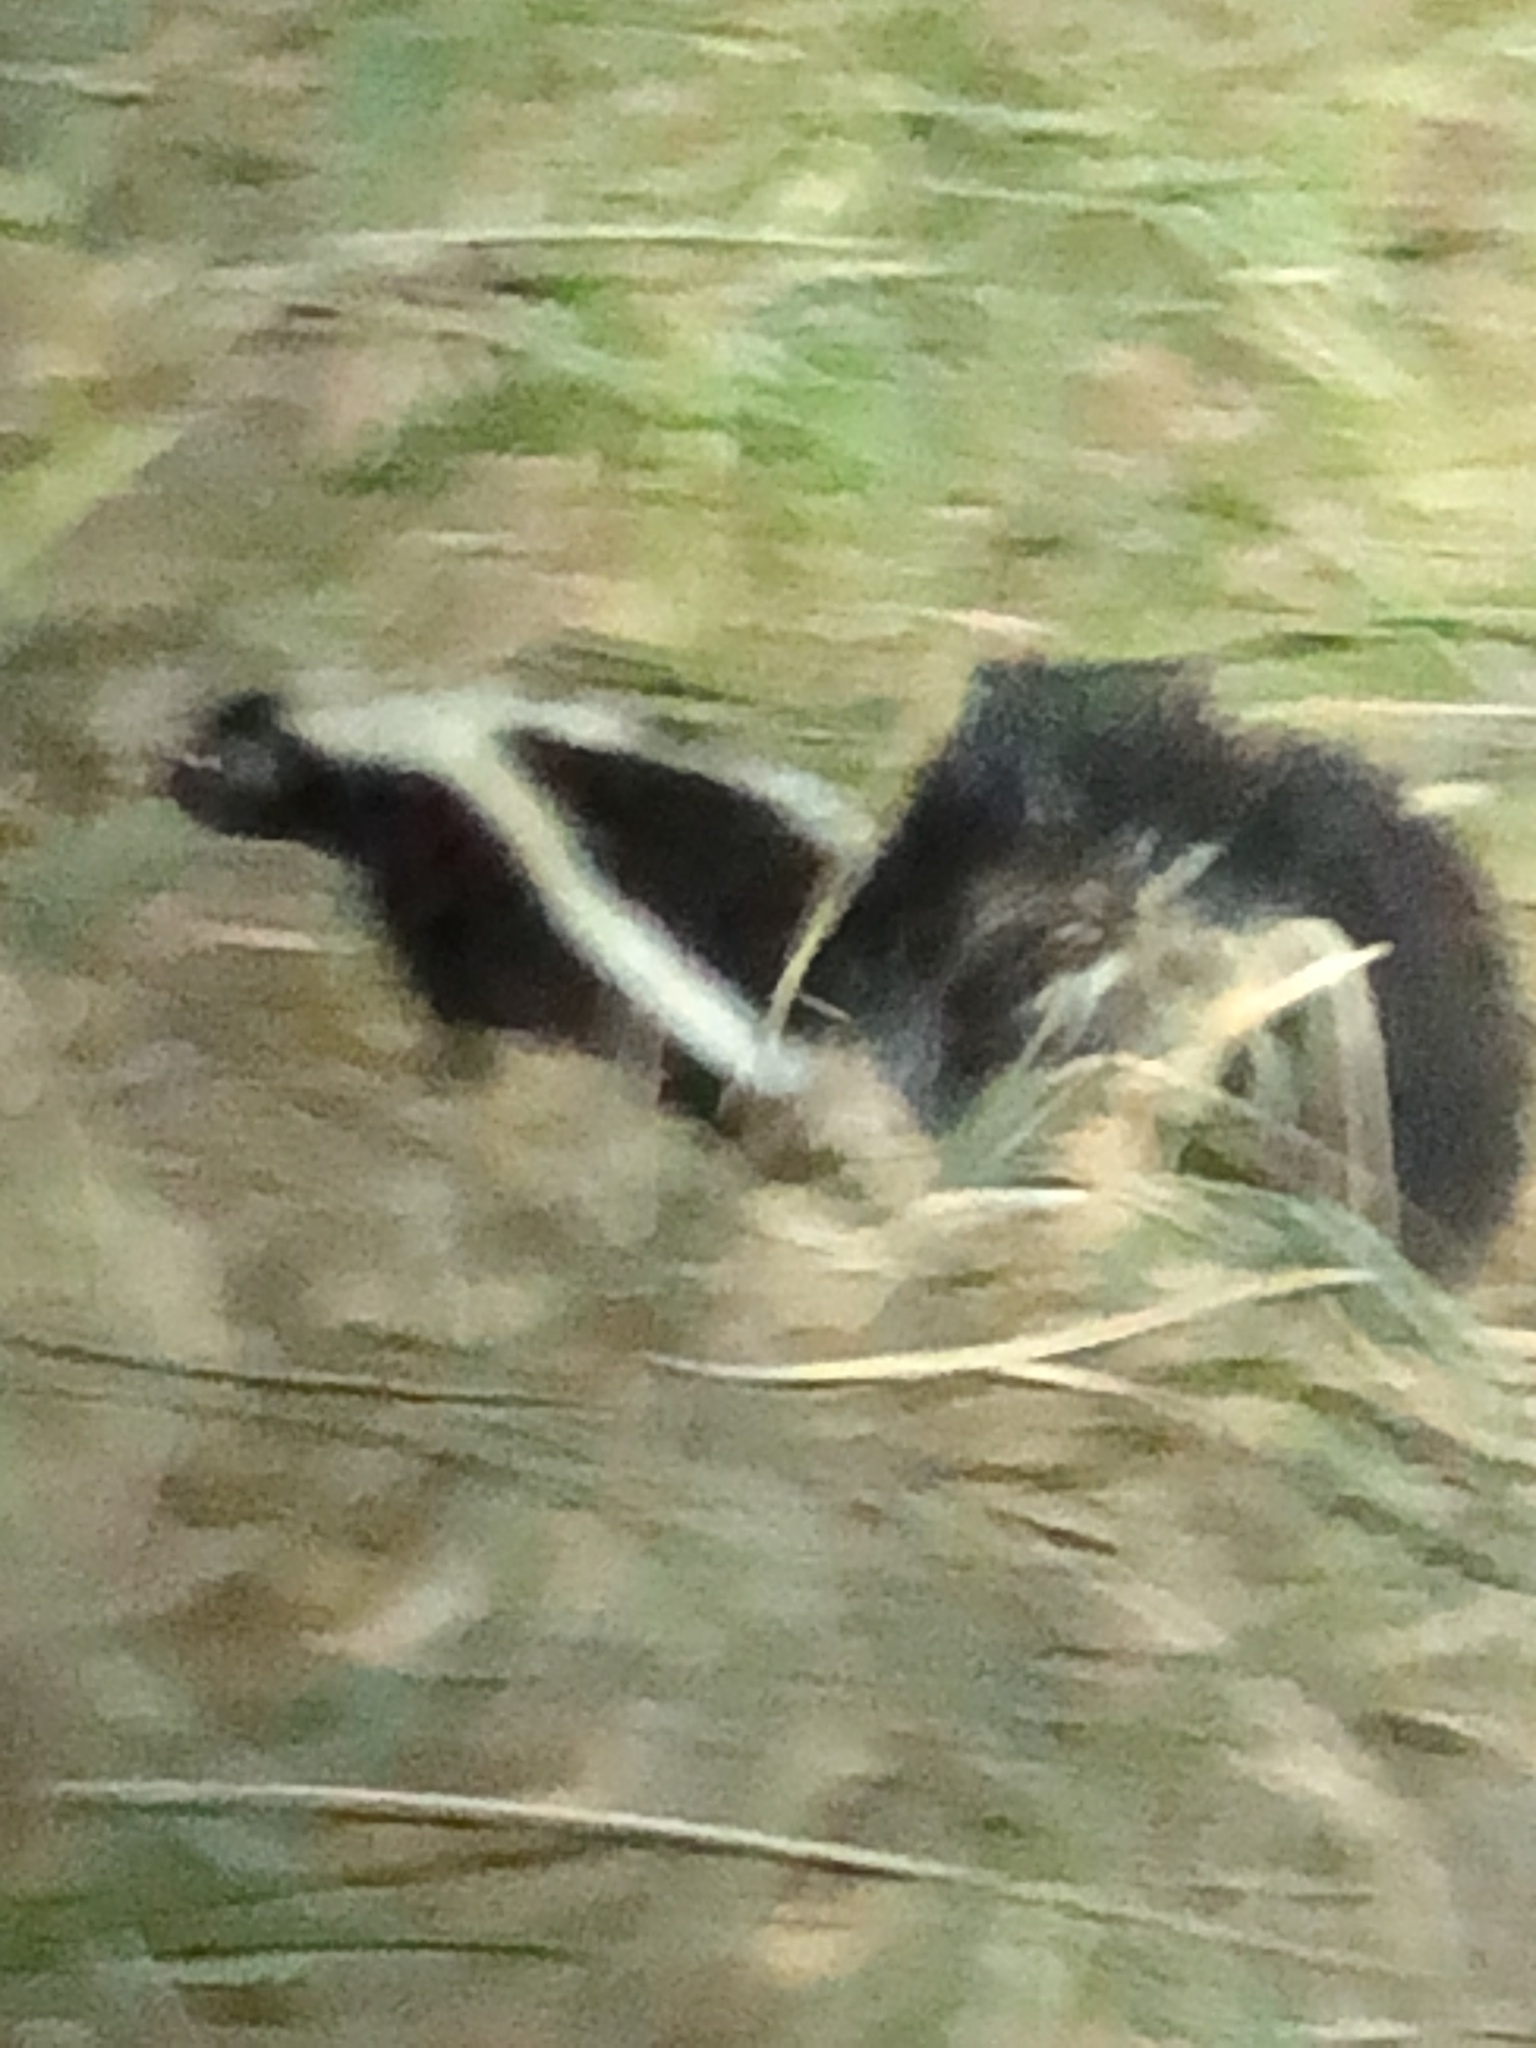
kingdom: Animalia
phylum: Chordata
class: Mammalia
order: Carnivora
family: Mephitidae
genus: Mephitis
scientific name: Mephitis mephitis
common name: Striped skunk
